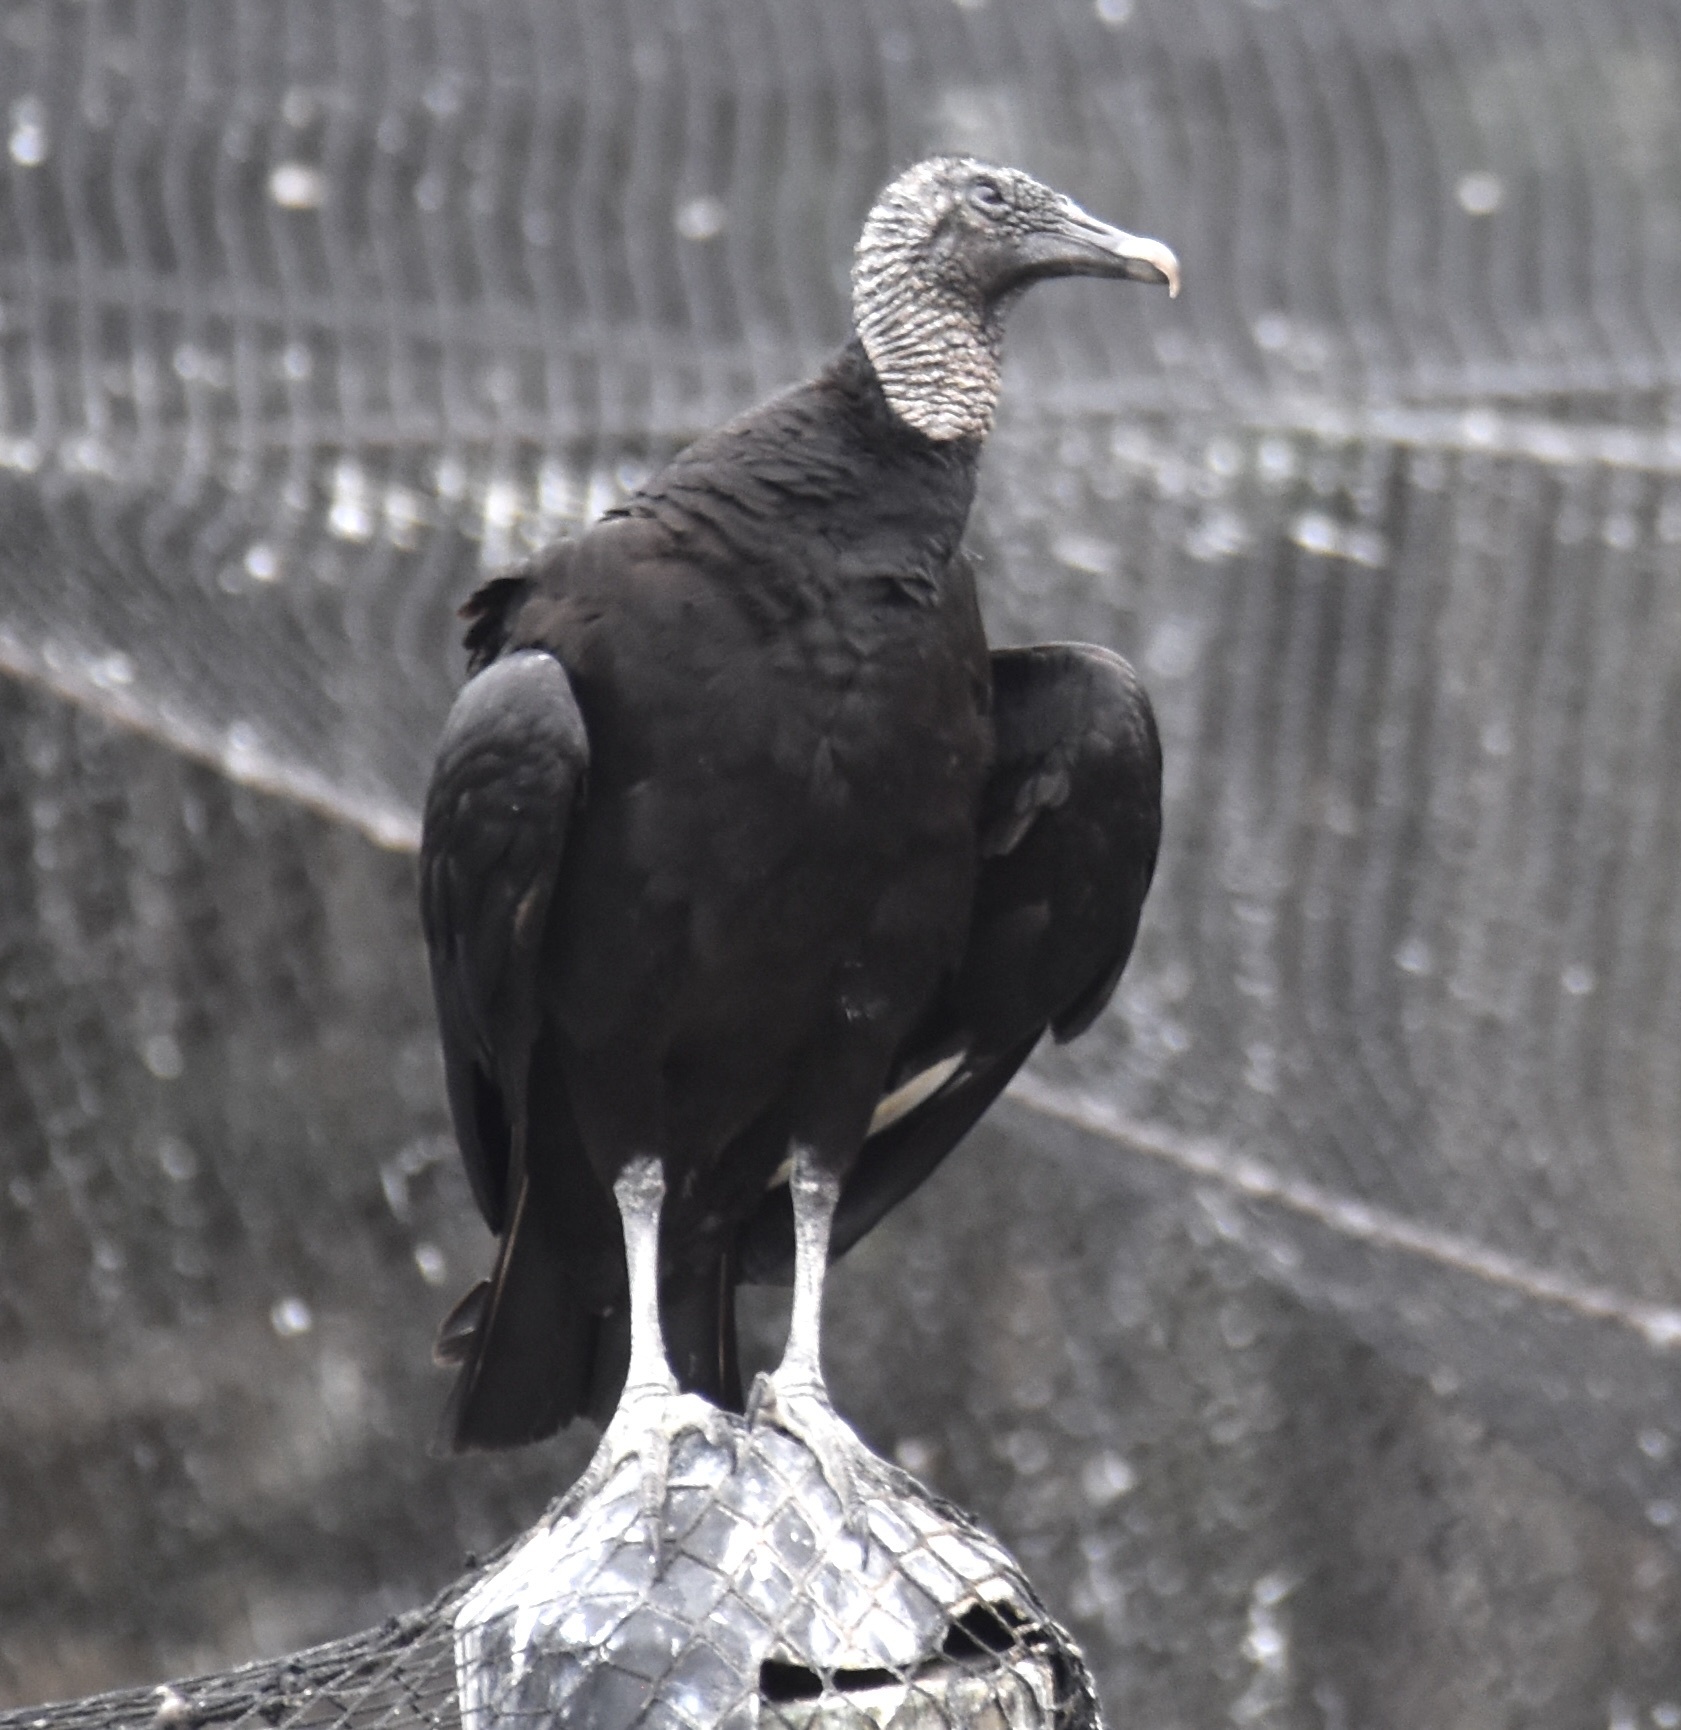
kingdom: Animalia
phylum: Chordata
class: Aves
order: Accipitriformes
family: Cathartidae
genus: Coragyps
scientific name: Coragyps atratus
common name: Black vulture
